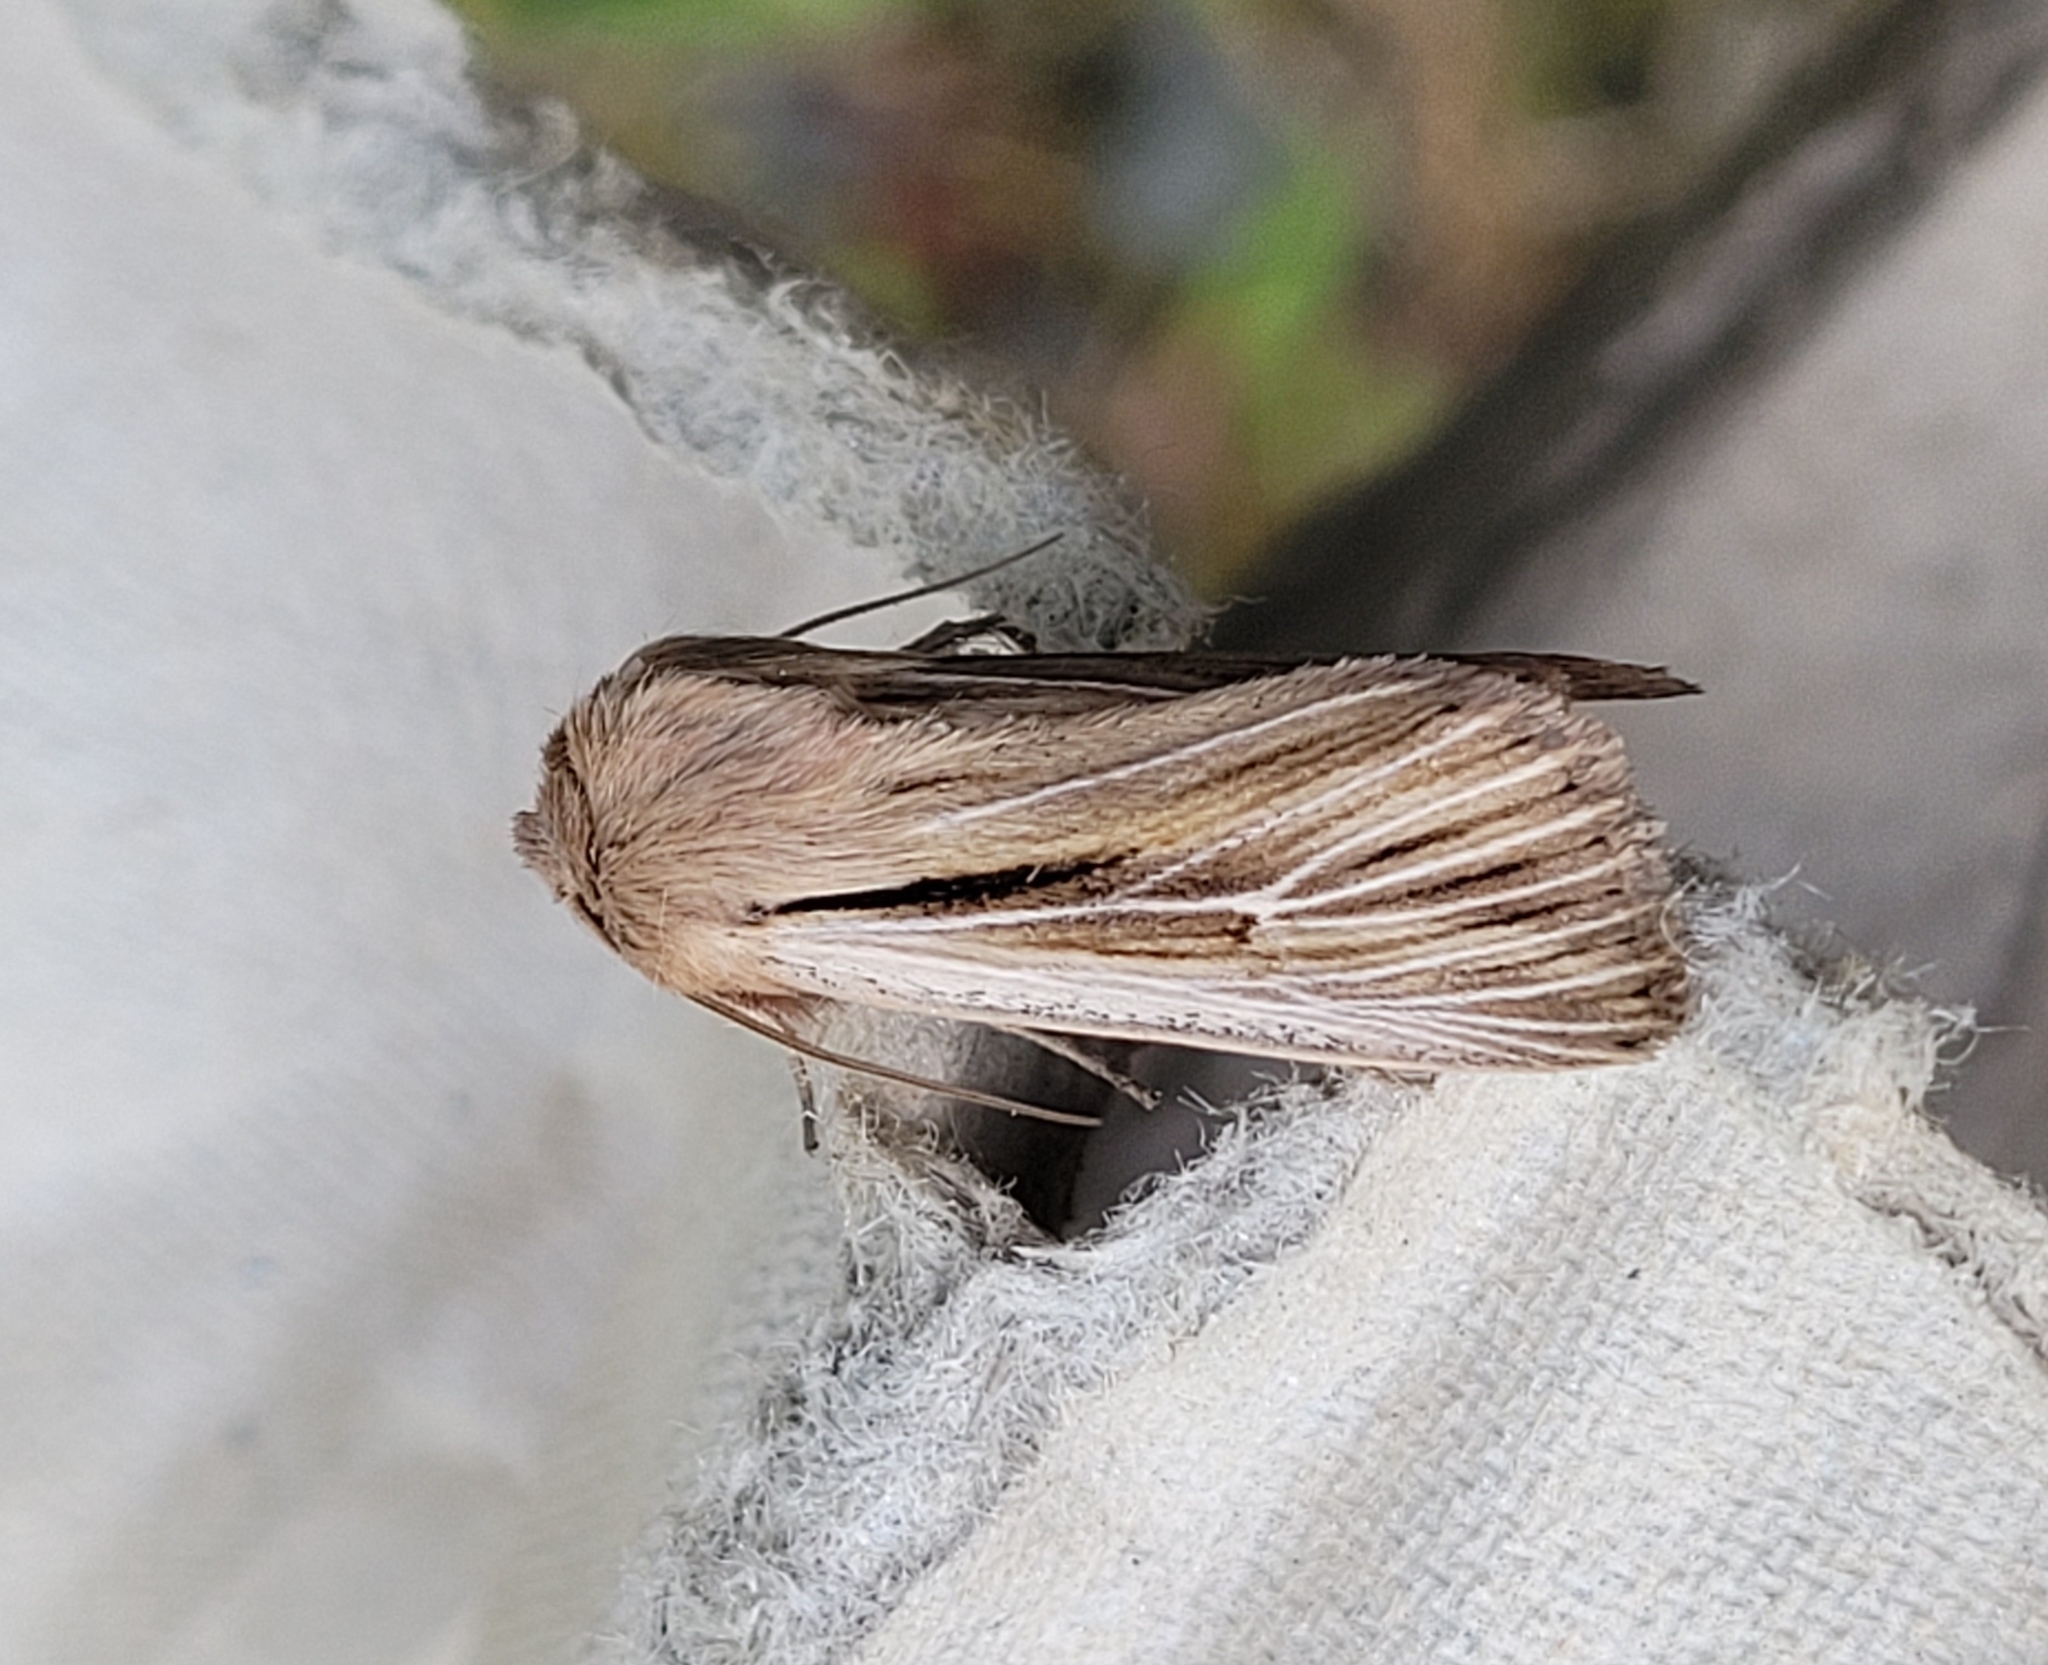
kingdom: Animalia
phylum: Arthropoda
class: Insecta
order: Lepidoptera
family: Noctuidae
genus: Leucania
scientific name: Leucania comma
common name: Shoulder-striped wainscot
